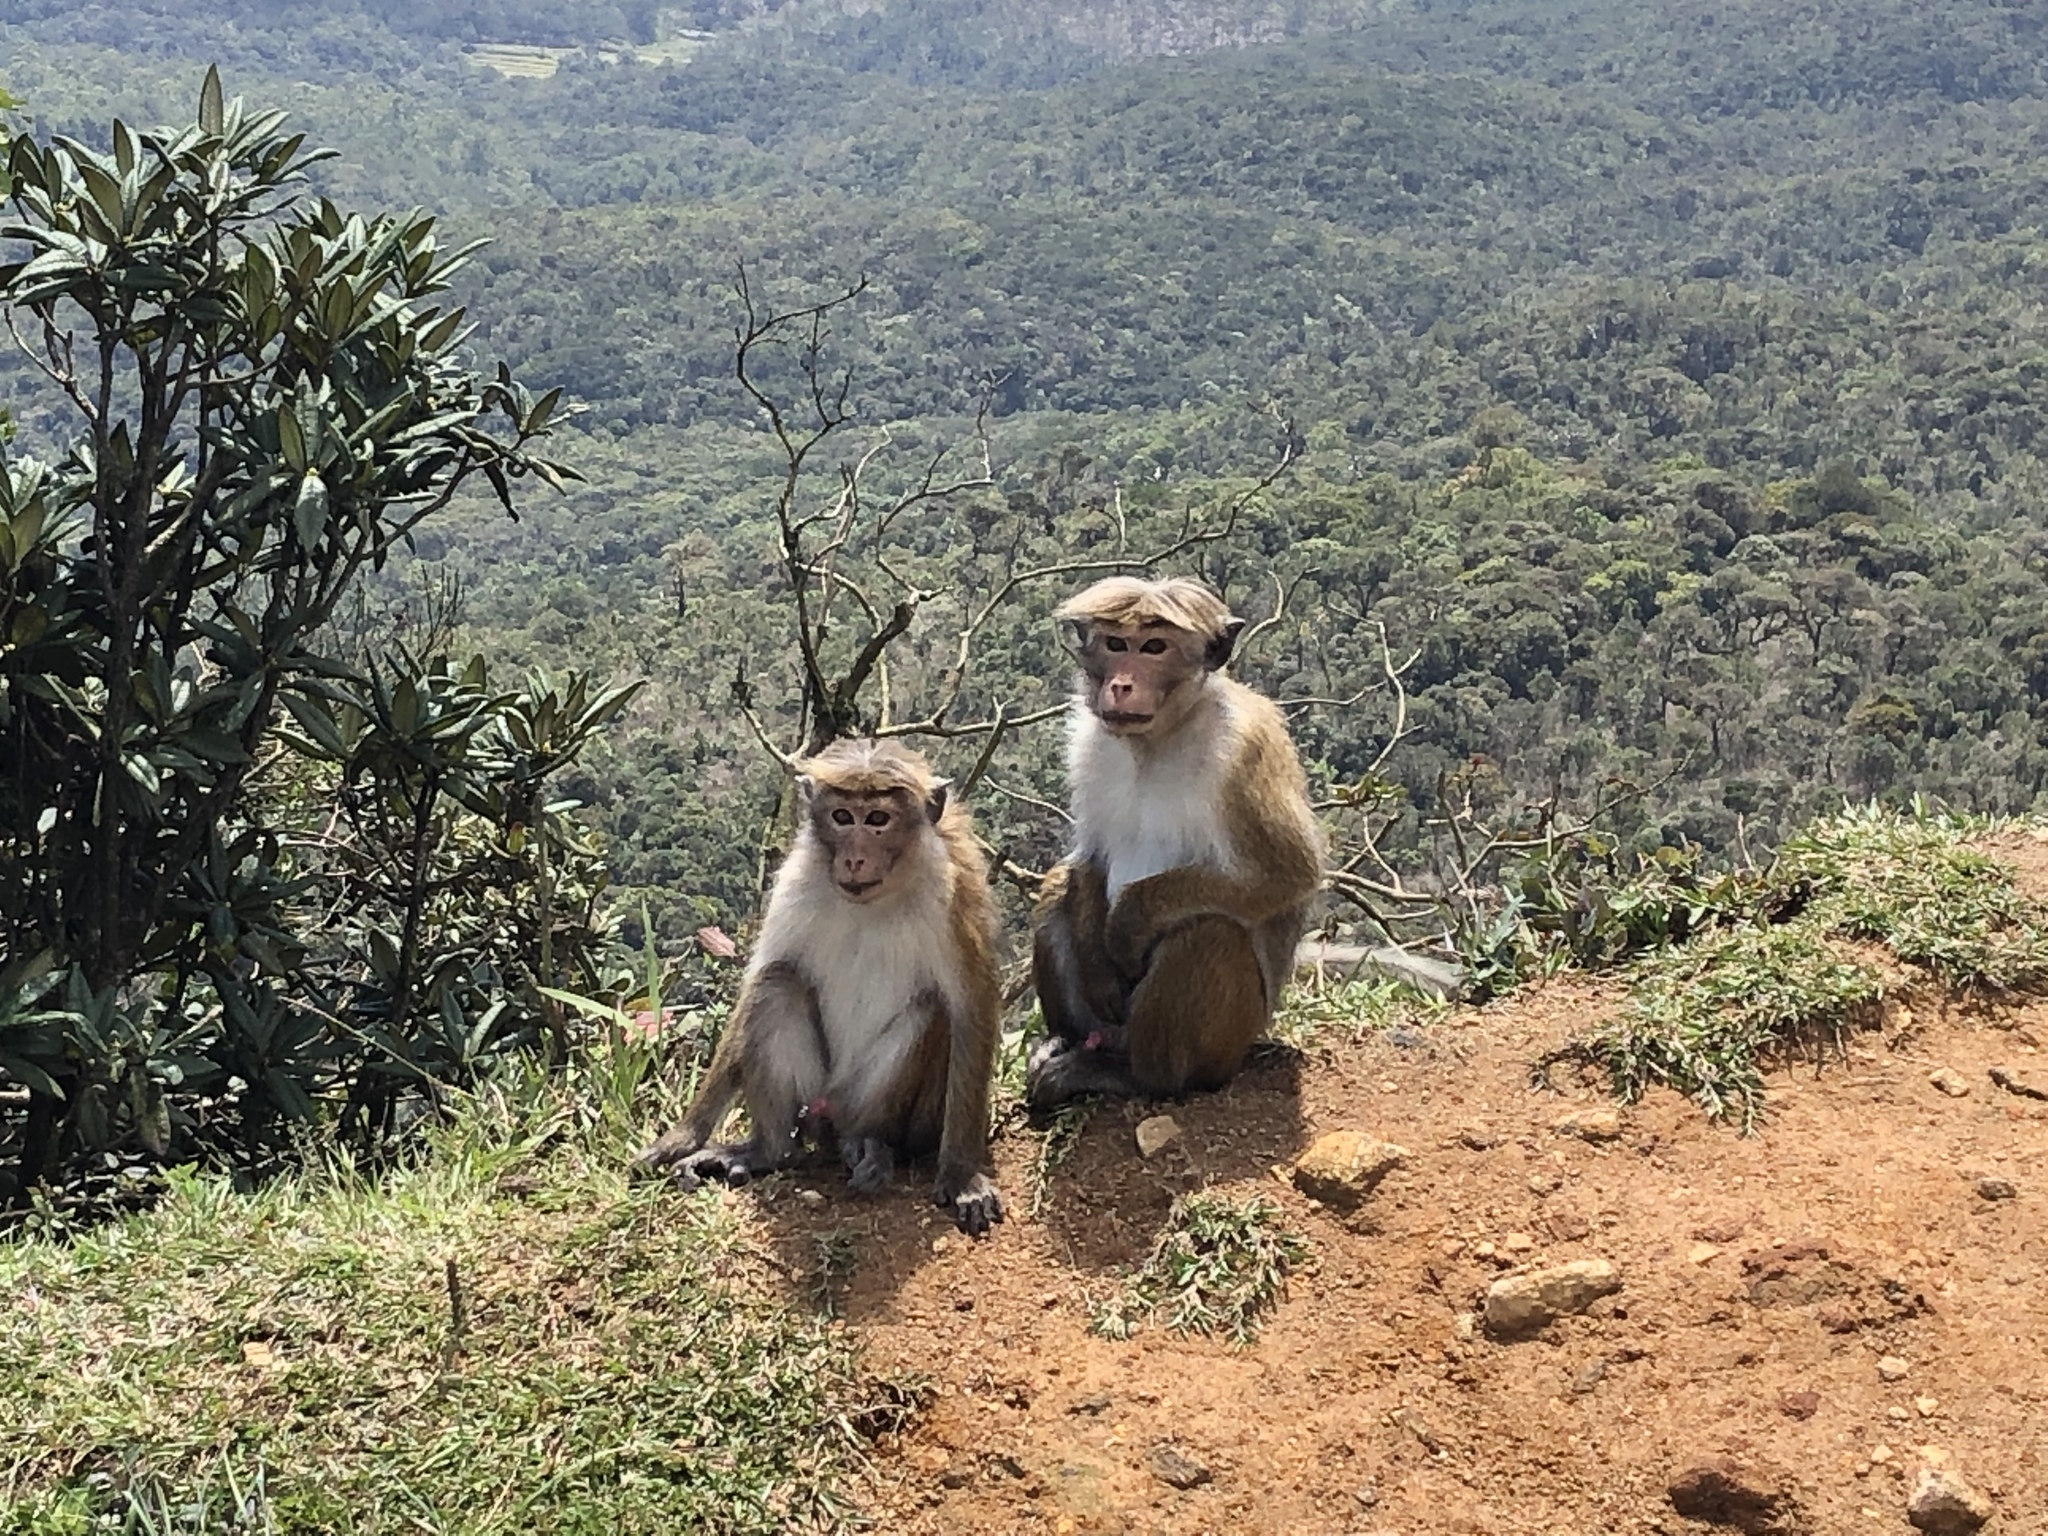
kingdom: Animalia
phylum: Chordata
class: Mammalia
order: Primates
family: Cercopithecidae
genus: Macaca
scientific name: Macaca sinica
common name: Toque macaque
